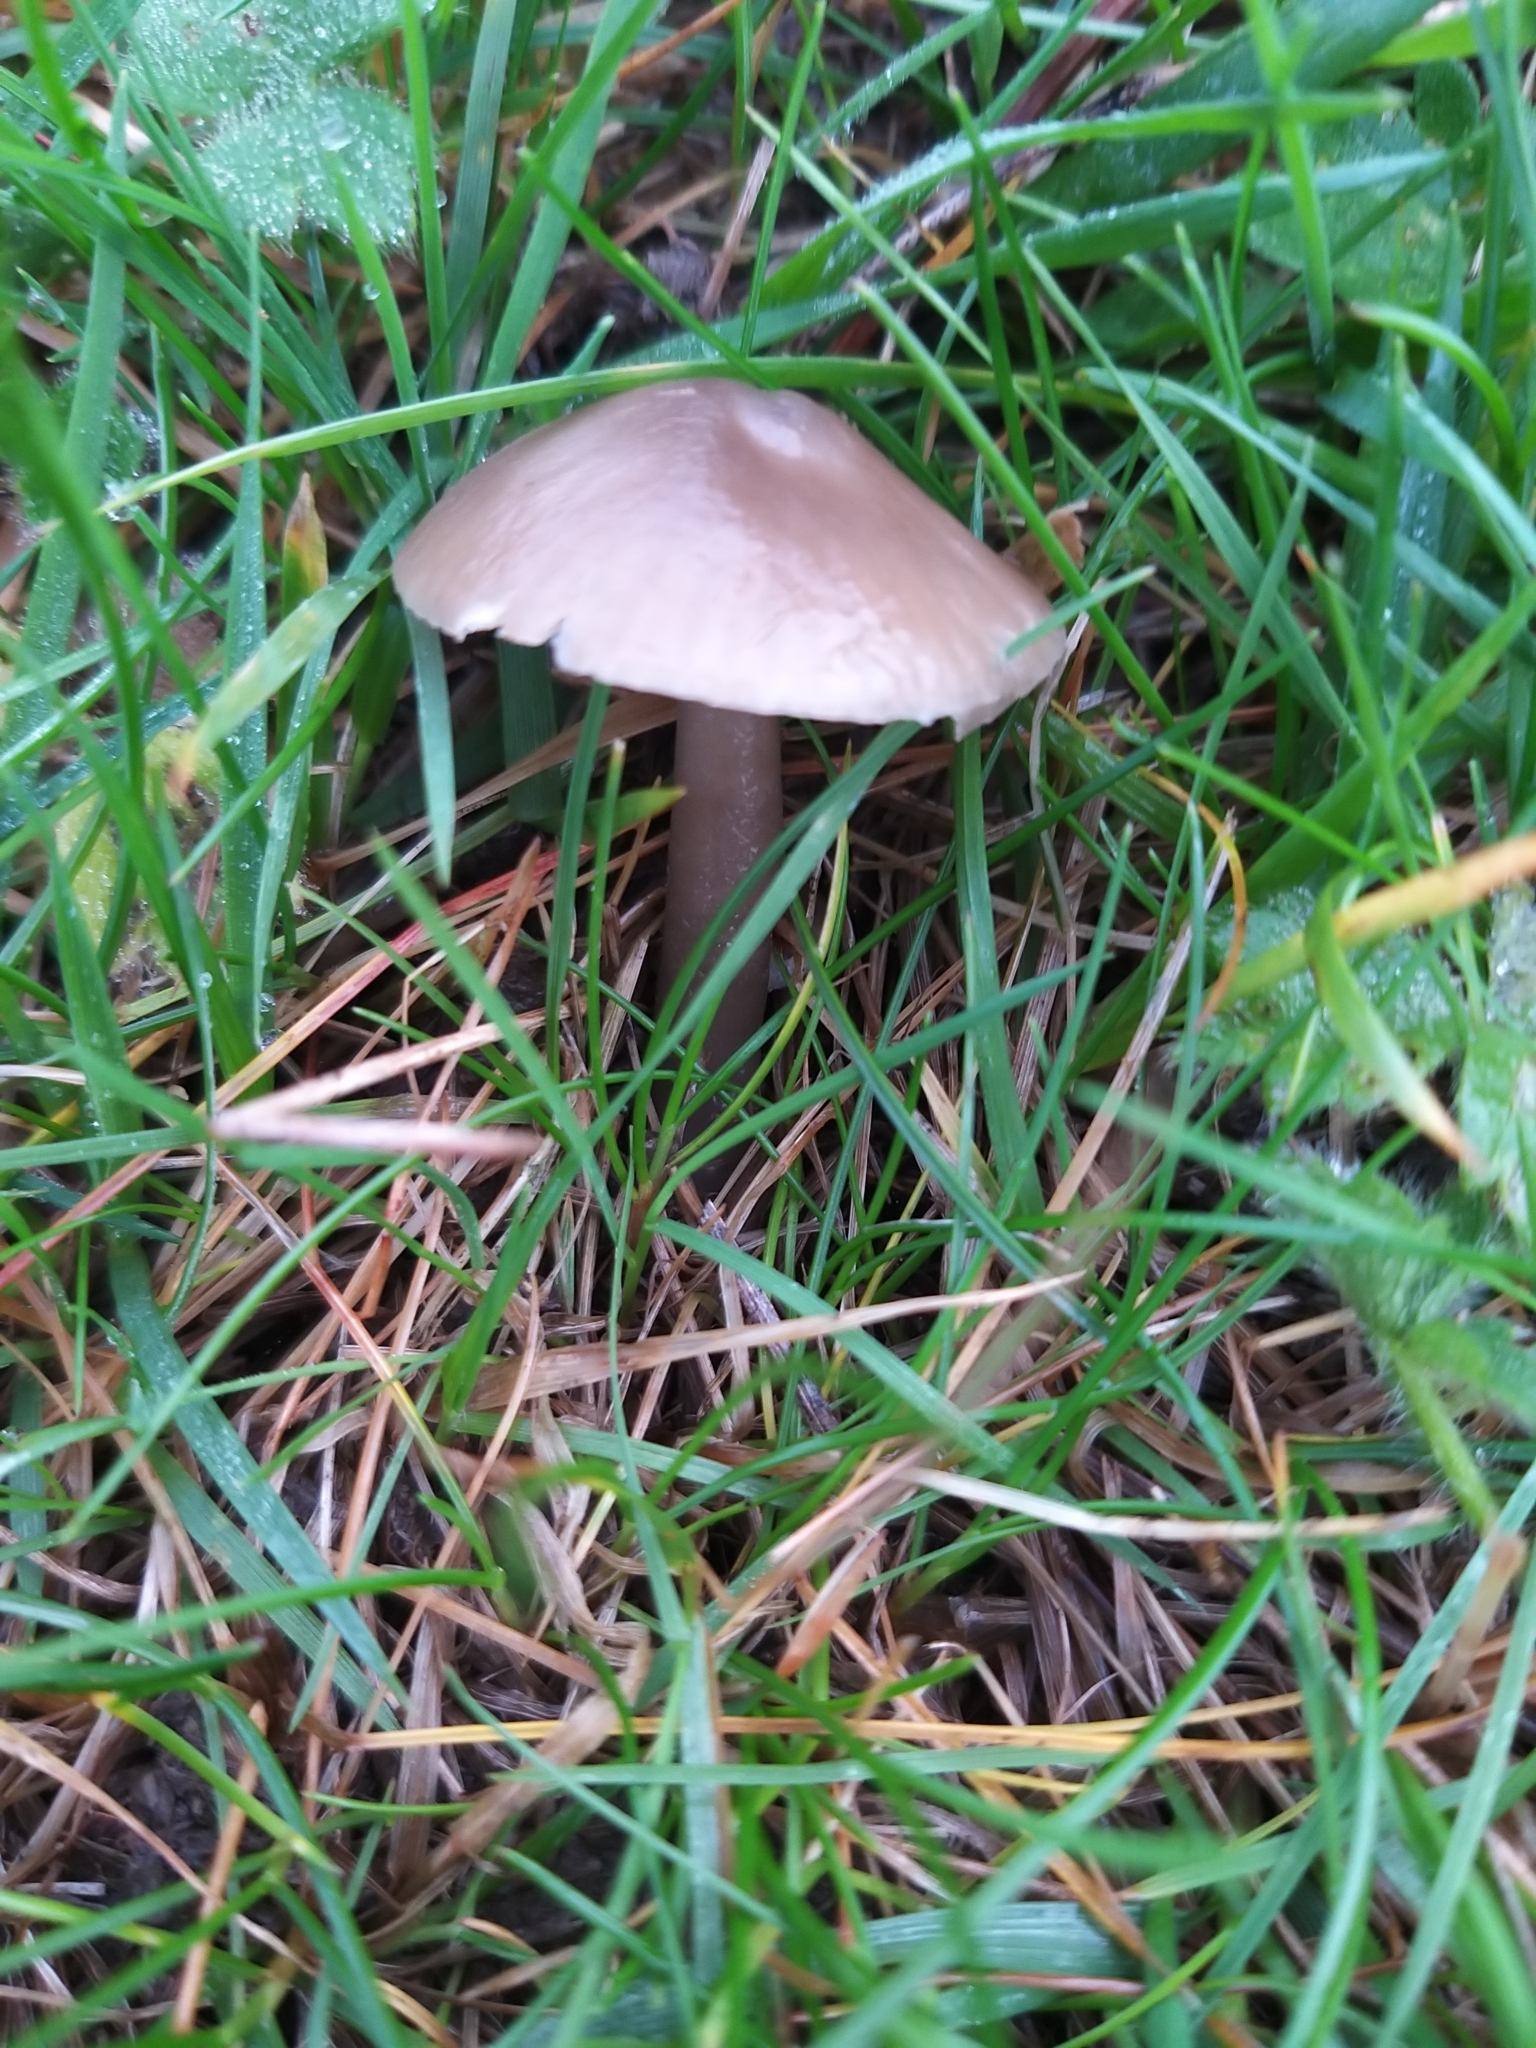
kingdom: Fungi
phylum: Basidiomycota
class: Agaricomycetes
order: Agaricales
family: Hygrophoraceae
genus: Gliophorus
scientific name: Gliophorus irrigatus
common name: Slimy waxcap
